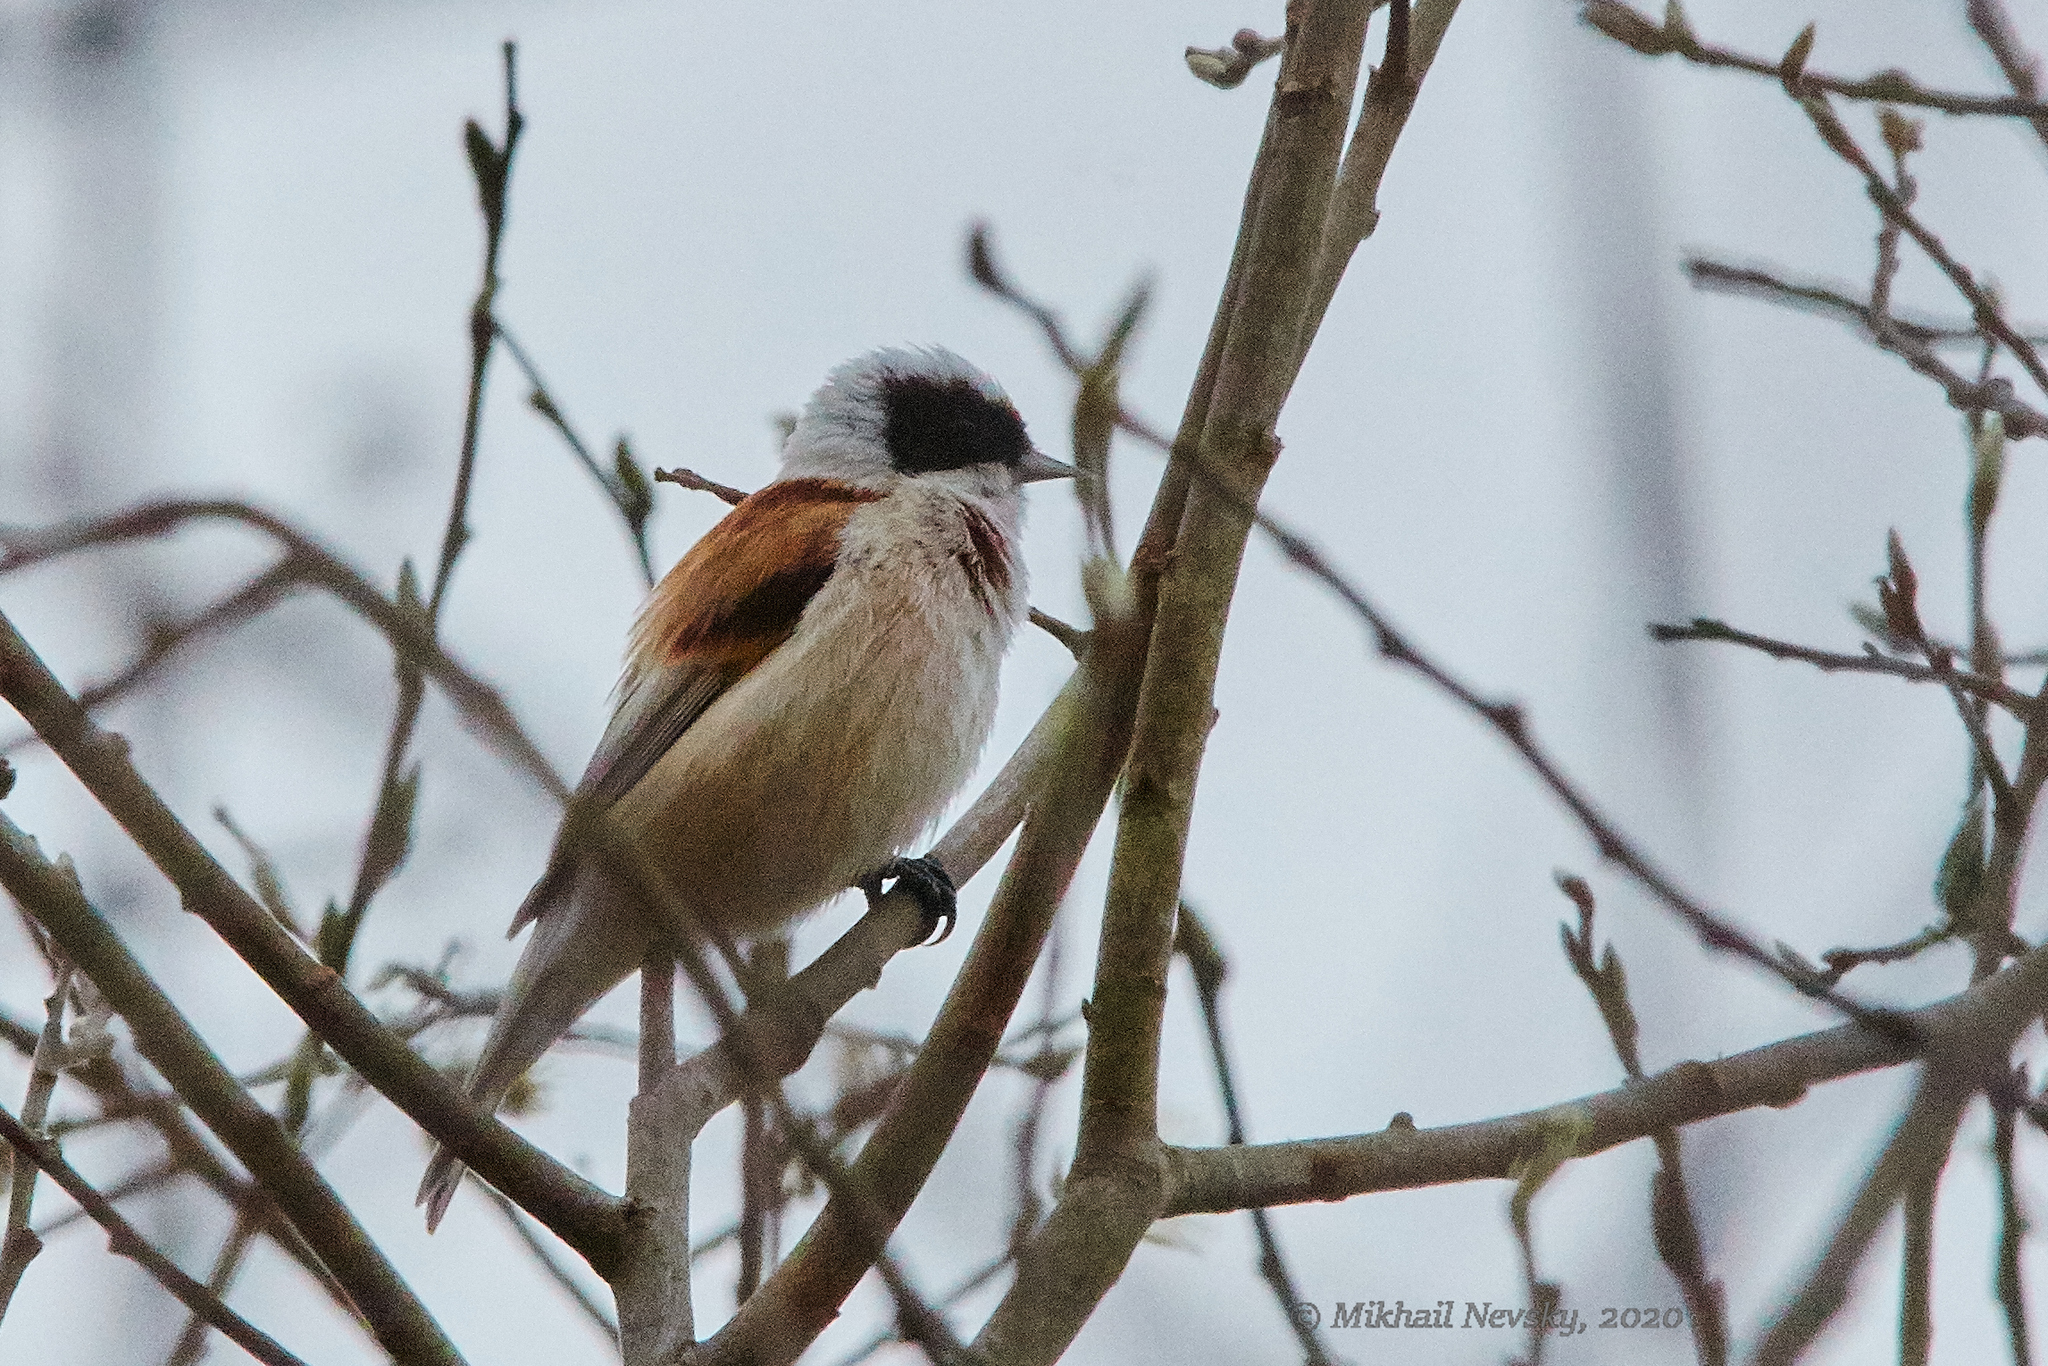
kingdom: Animalia
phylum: Chordata
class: Aves
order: Passeriformes
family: Remizidae
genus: Remiz
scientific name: Remiz pendulinus
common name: Eurasian penduline tit
